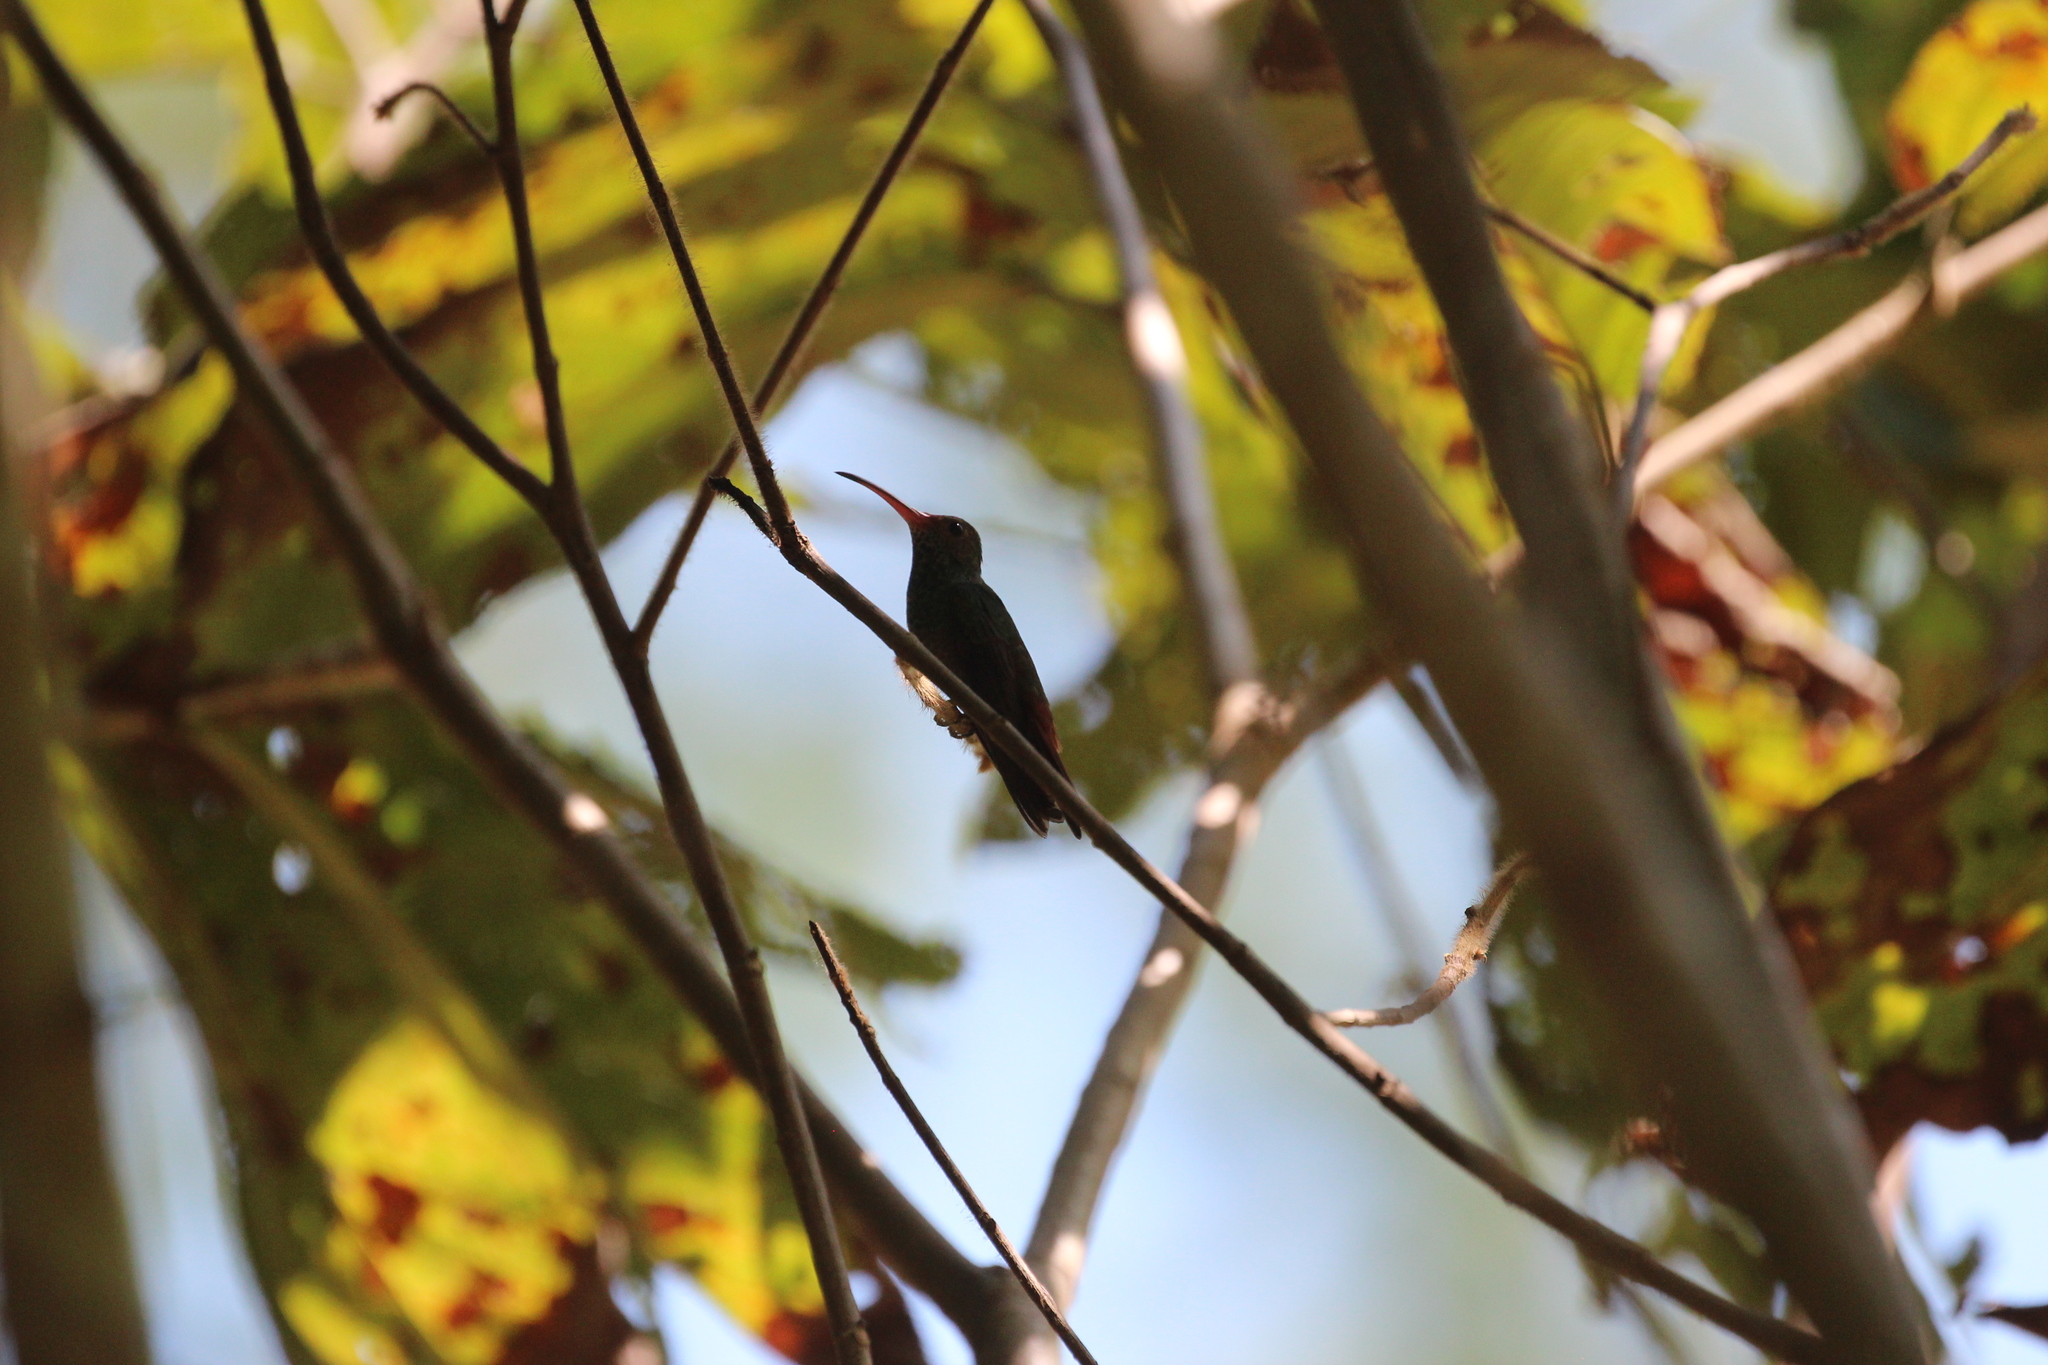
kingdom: Animalia
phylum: Chordata
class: Aves
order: Apodiformes
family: Trochilidae
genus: Amazilia
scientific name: Amazilia tzacatl
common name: Rufous-tailed hummingbird
